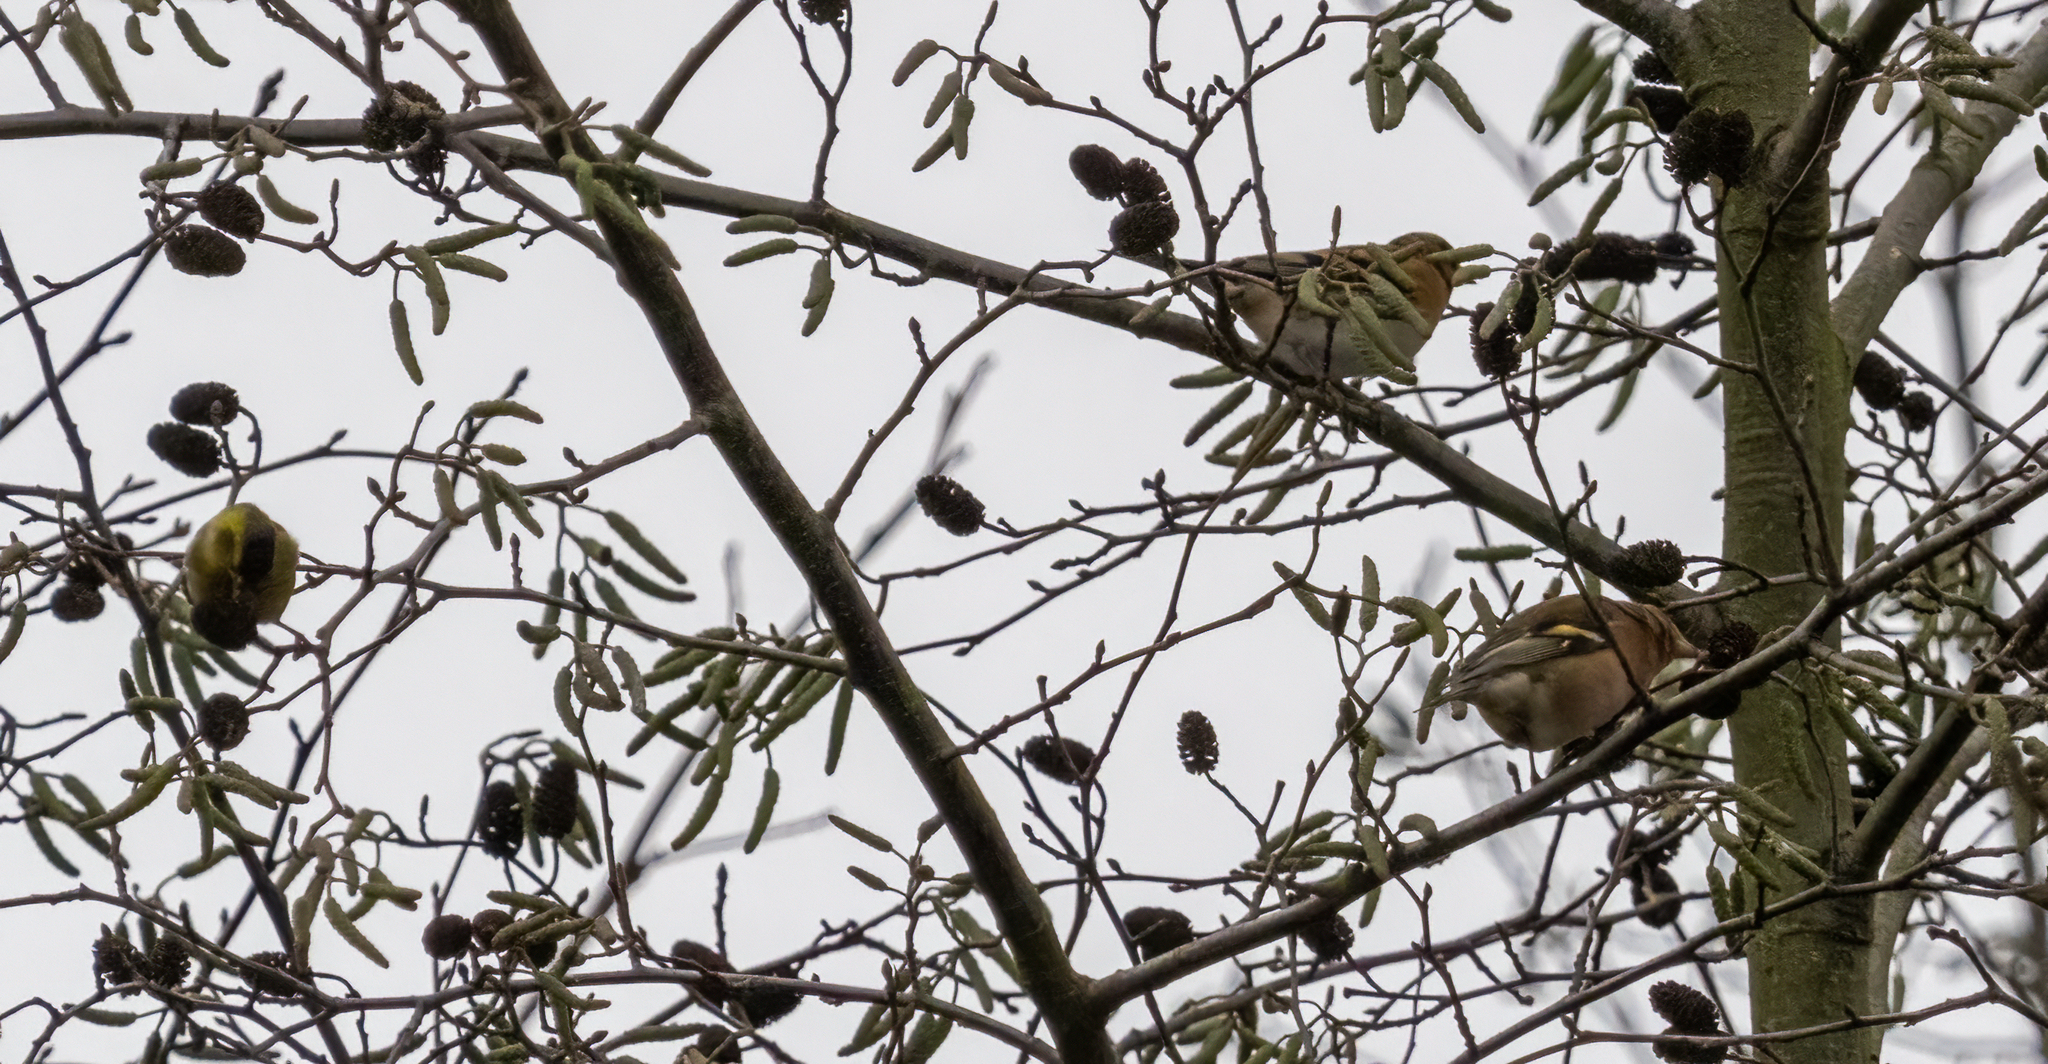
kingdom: Animalia
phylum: Chordata
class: Aves
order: Passeriformes
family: Fringillidae
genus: Fringilla
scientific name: Fringilla montifringilla
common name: Brambling
